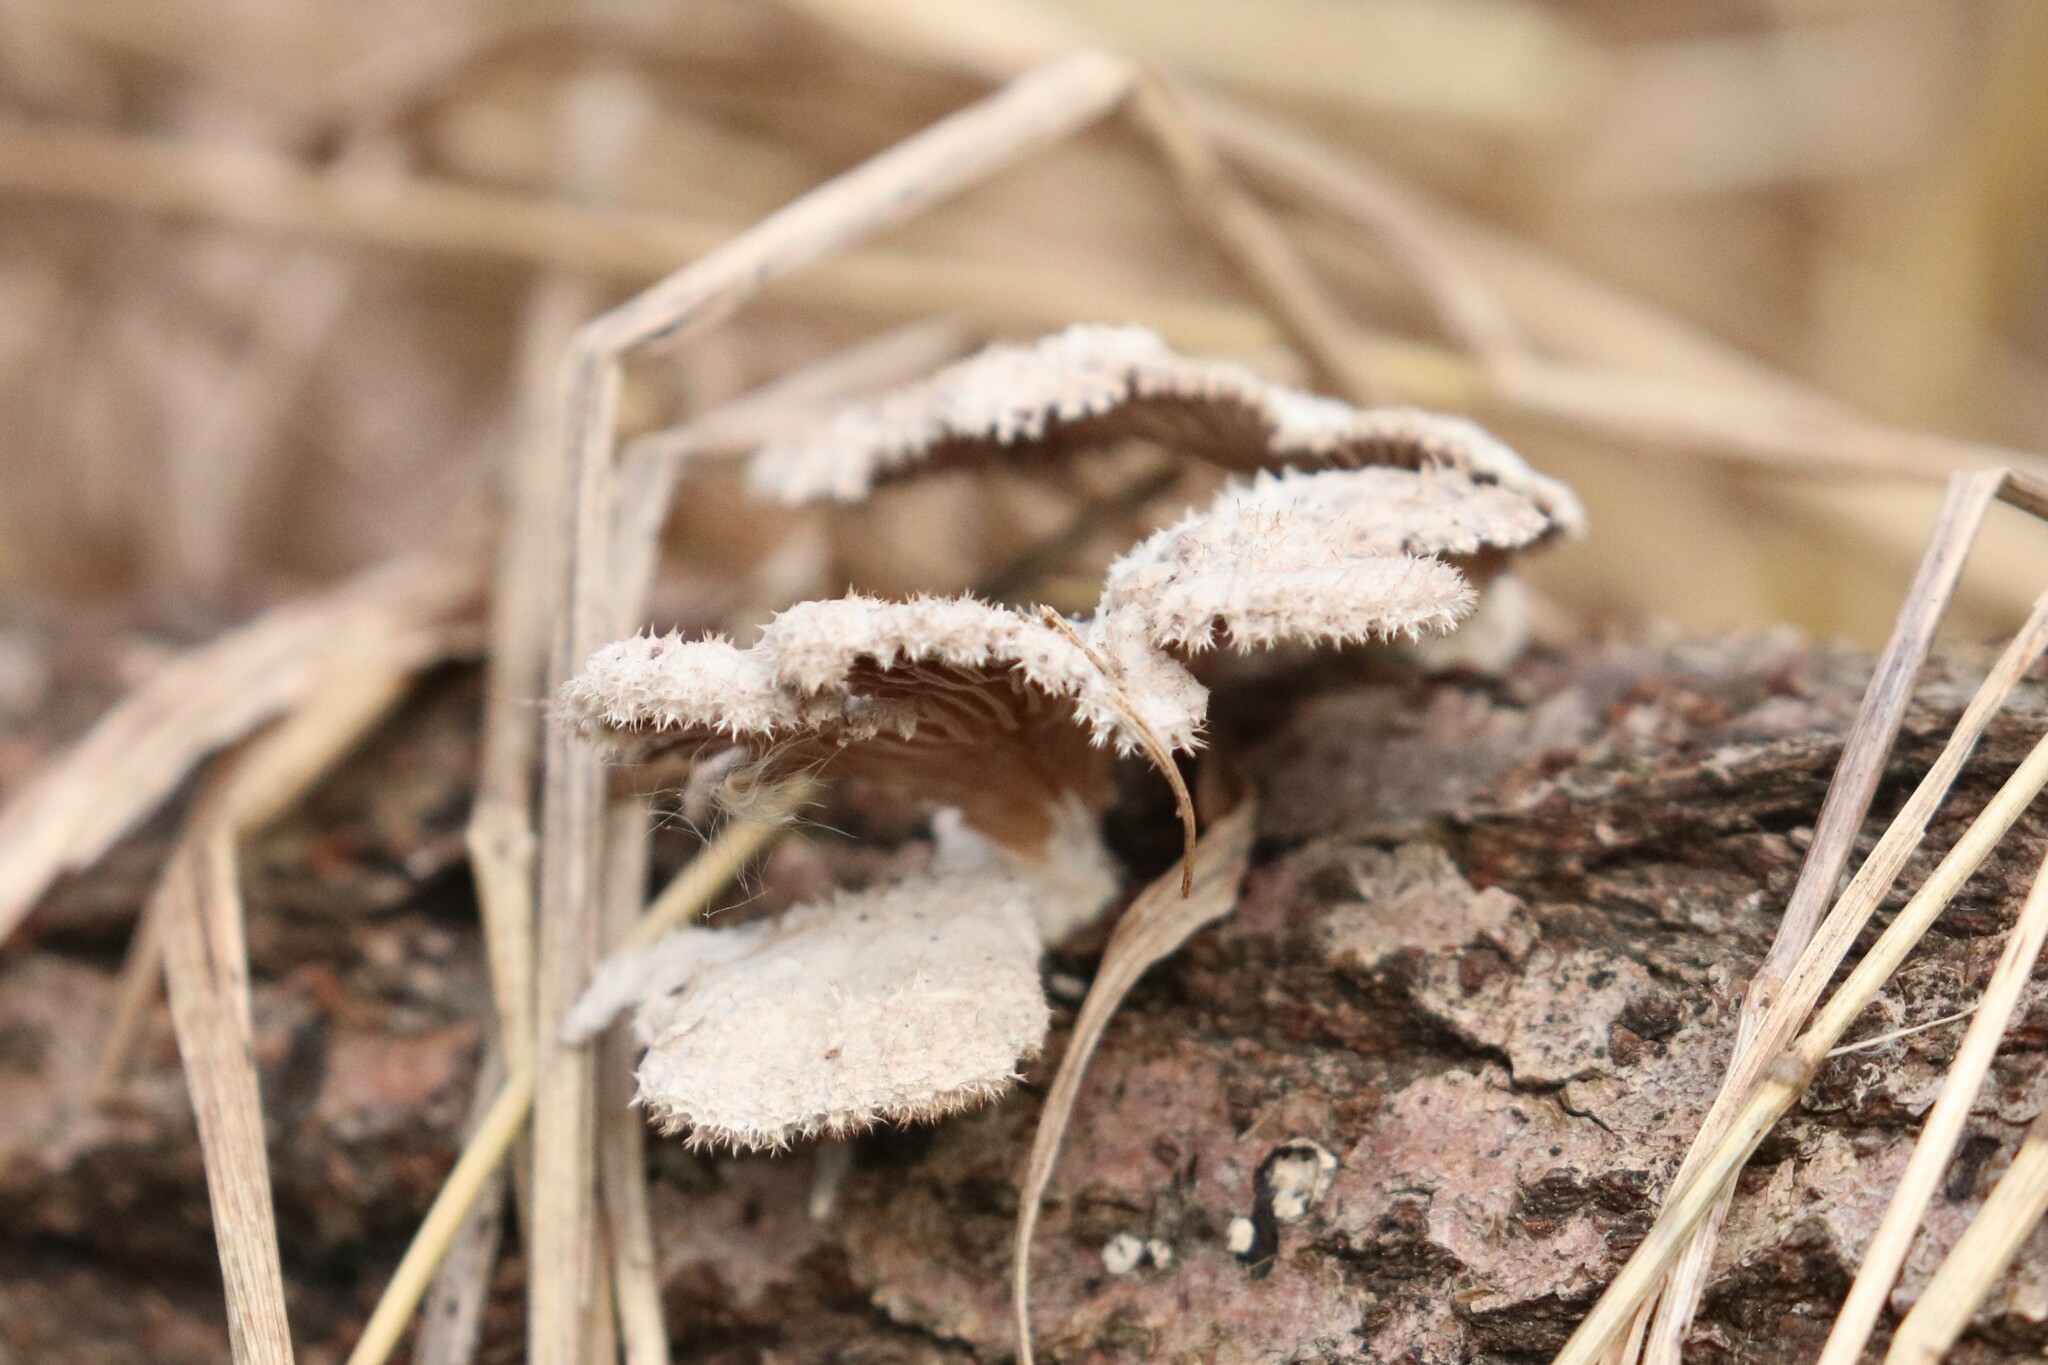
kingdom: Fungi
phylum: Basidiomycota
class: Agaricomycetes
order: Agaricales
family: Schizophyllaceae
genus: Schizophyllum
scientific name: Schizophyllum commune
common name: Common porecrust
